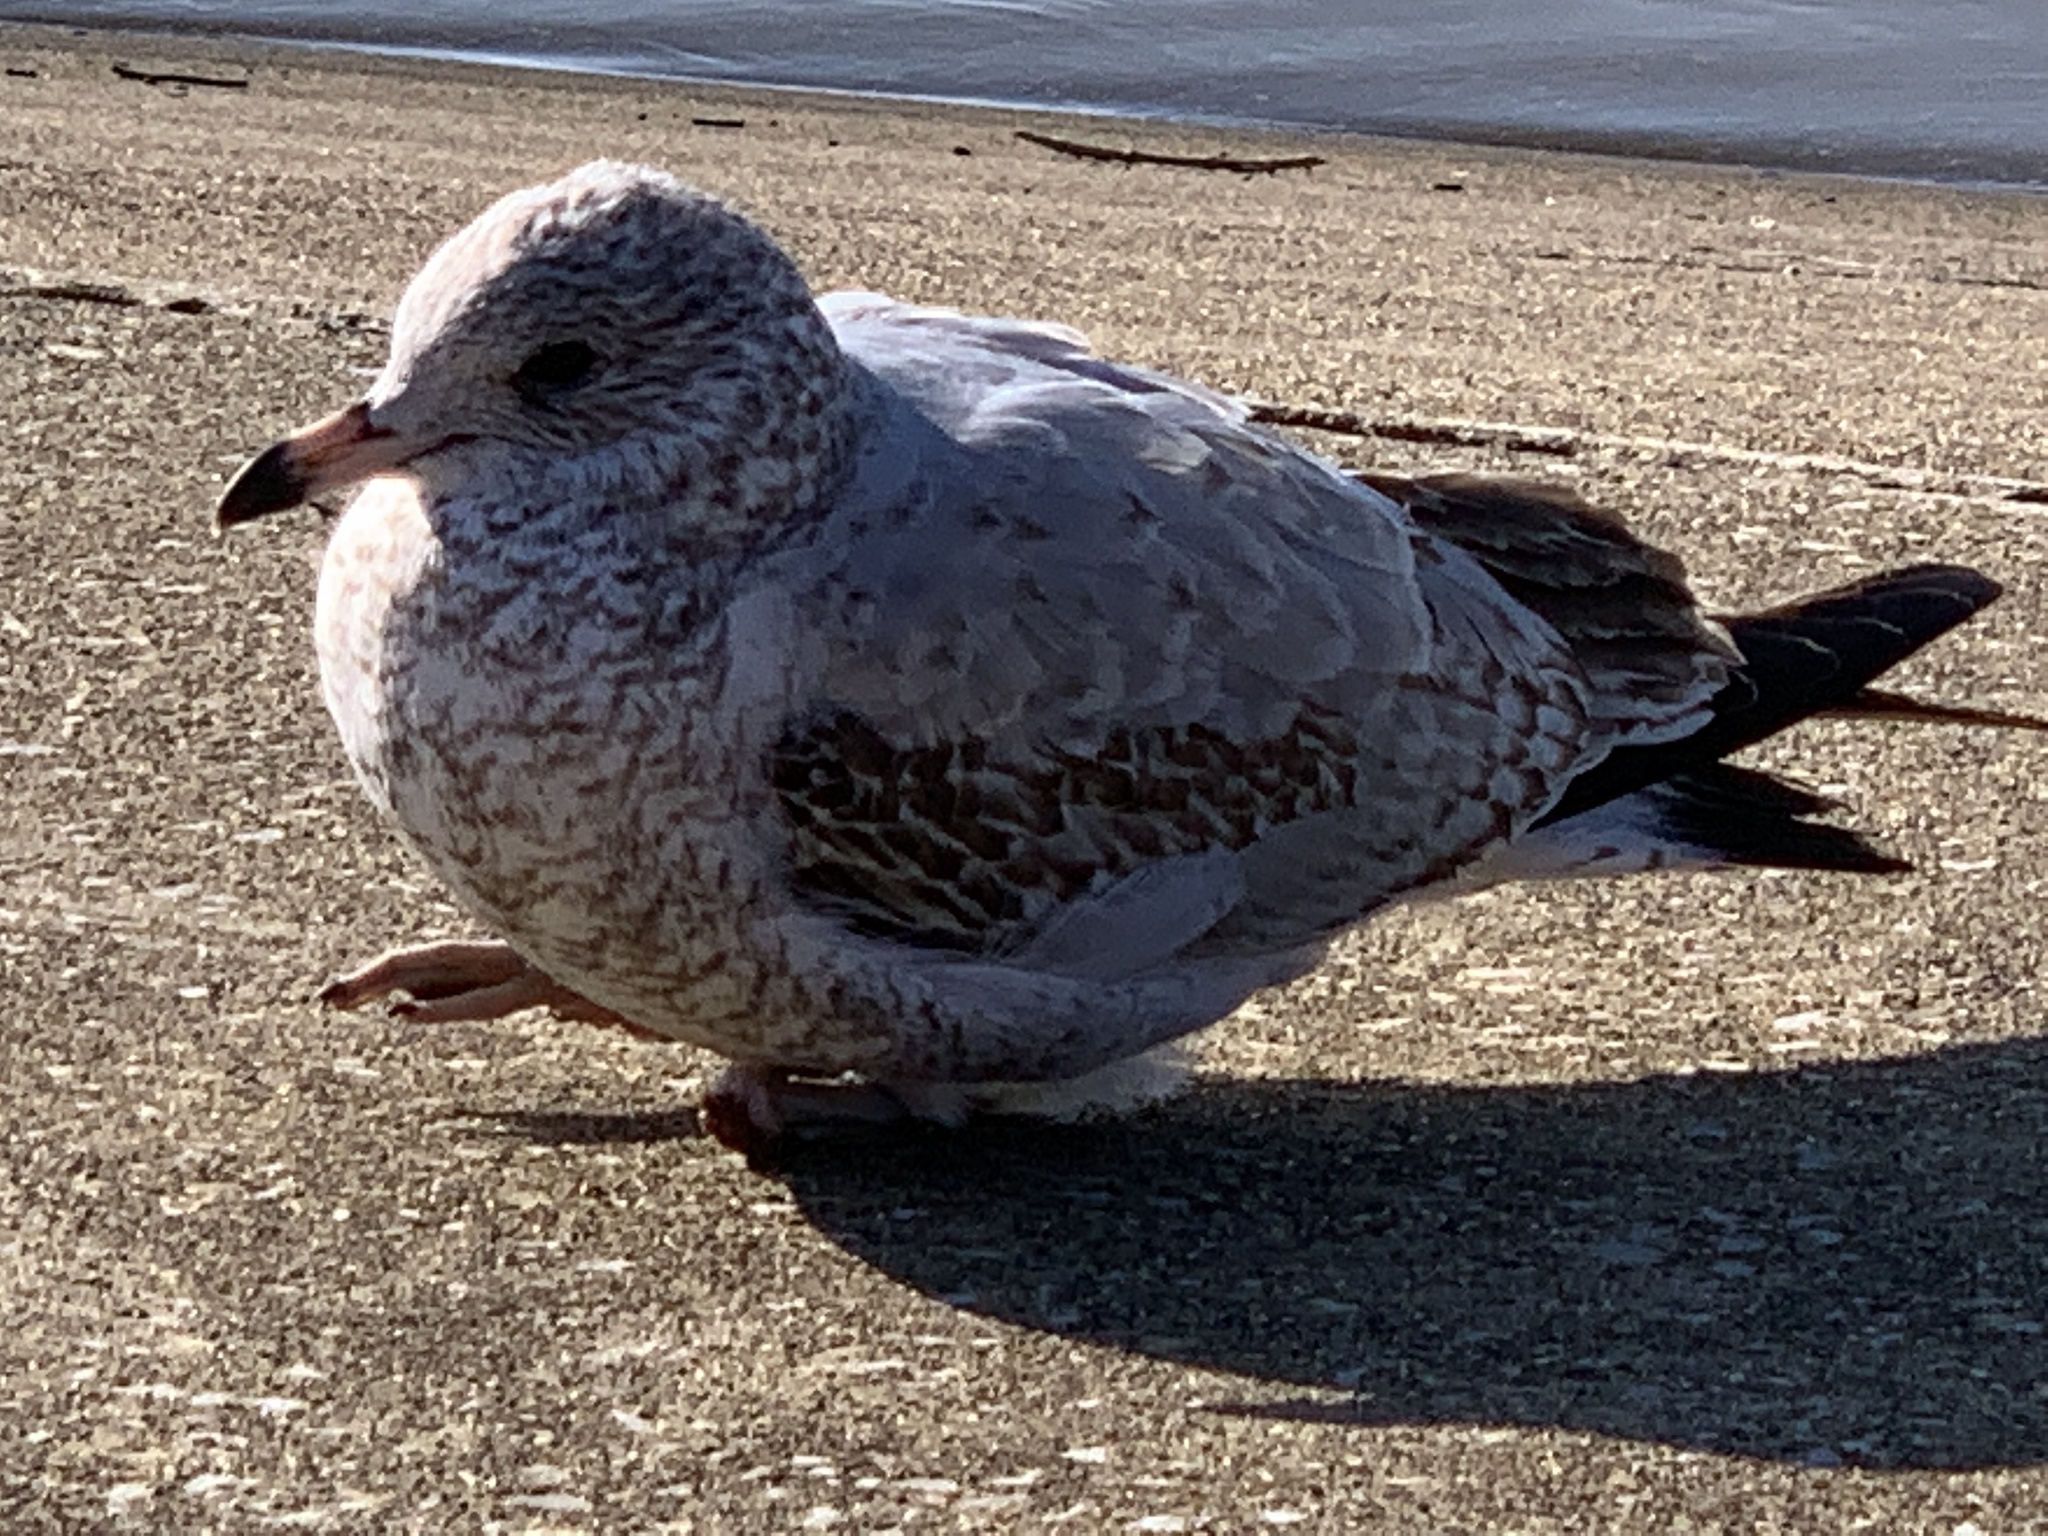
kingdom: Animalia
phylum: Chordata
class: Aves
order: Charadriiformes
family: Laridae
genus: Larus
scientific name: Larus delawarensis
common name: Ring-billed gull
